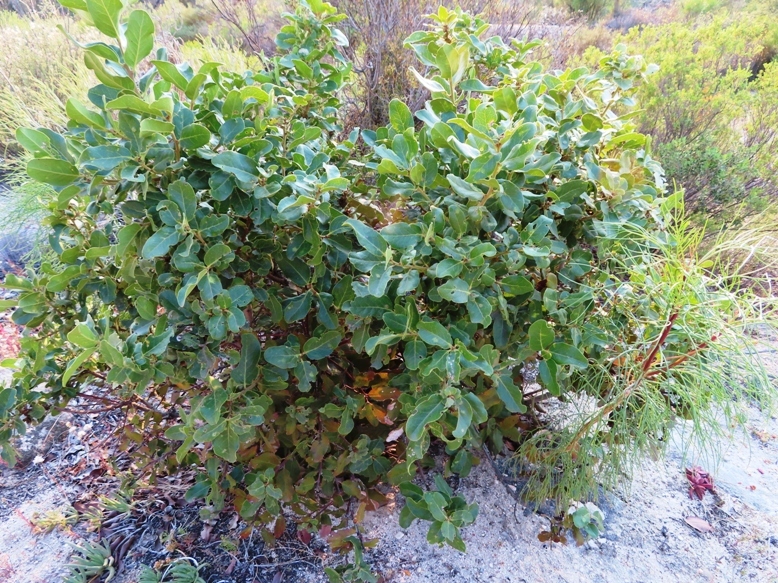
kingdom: Plantae
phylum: Tracheophyta
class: Magnoliopsida
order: Ericales
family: Ebenaceae
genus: Euclea
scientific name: Euclea tomentosa
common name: Honey guarri
